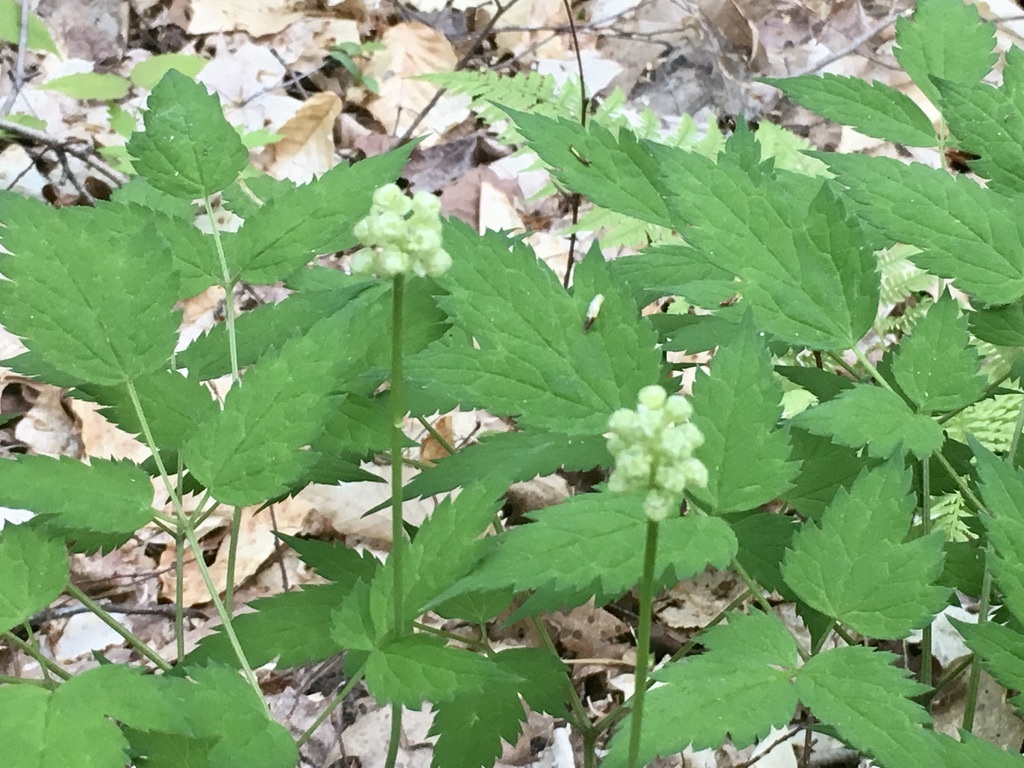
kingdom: Plantae
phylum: Tracheophyta
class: Magnoliopsida
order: Ranunculales
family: Ranunculaceae
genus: Actaea
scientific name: Actaea pachypoda
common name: Doll's-eyes
